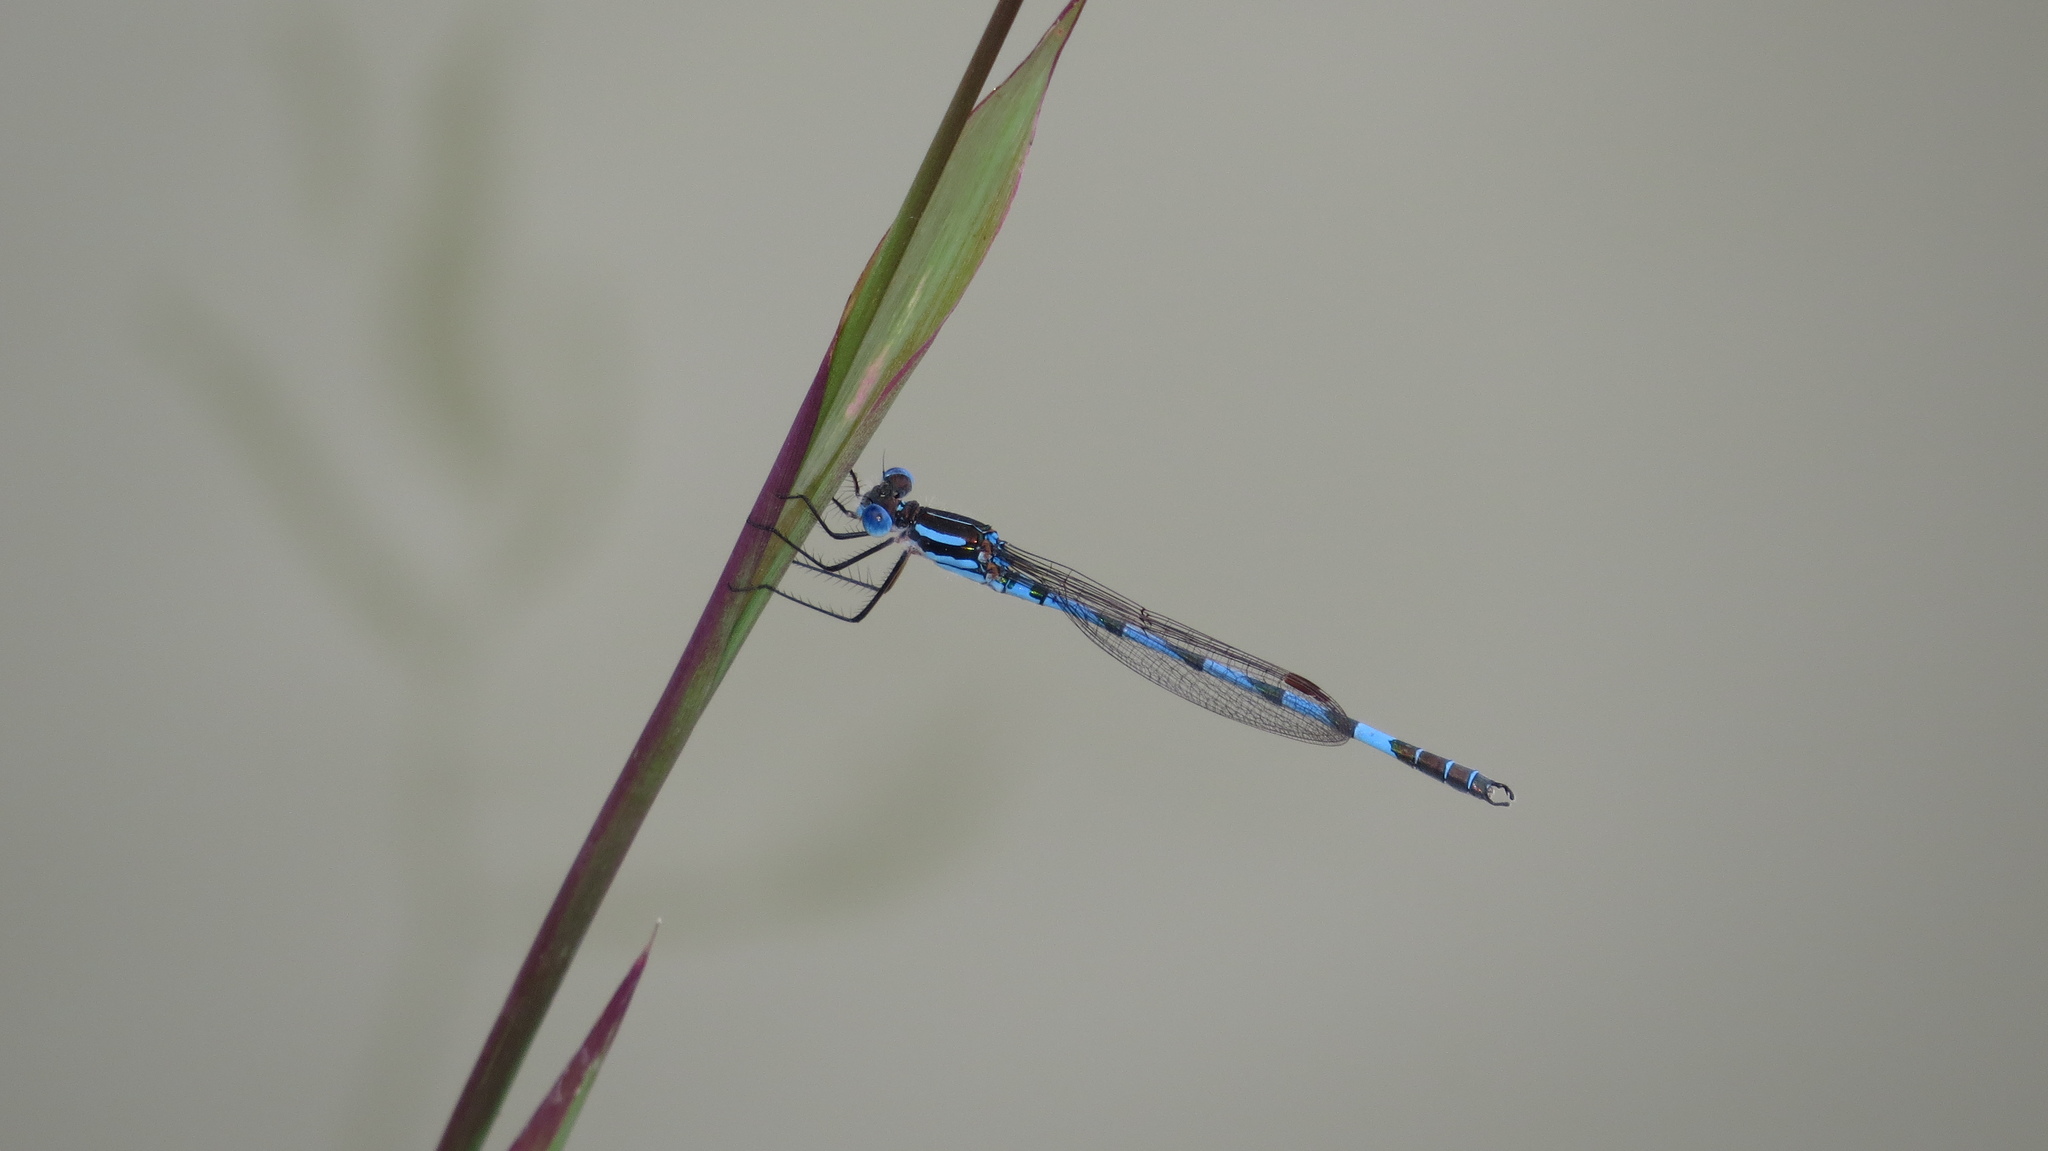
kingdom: Animalia
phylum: Arthropoda
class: Insecta
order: Odonata
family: Lestidae
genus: Austrolestes
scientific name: Austrolestes annulosus
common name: Blue ringtail
